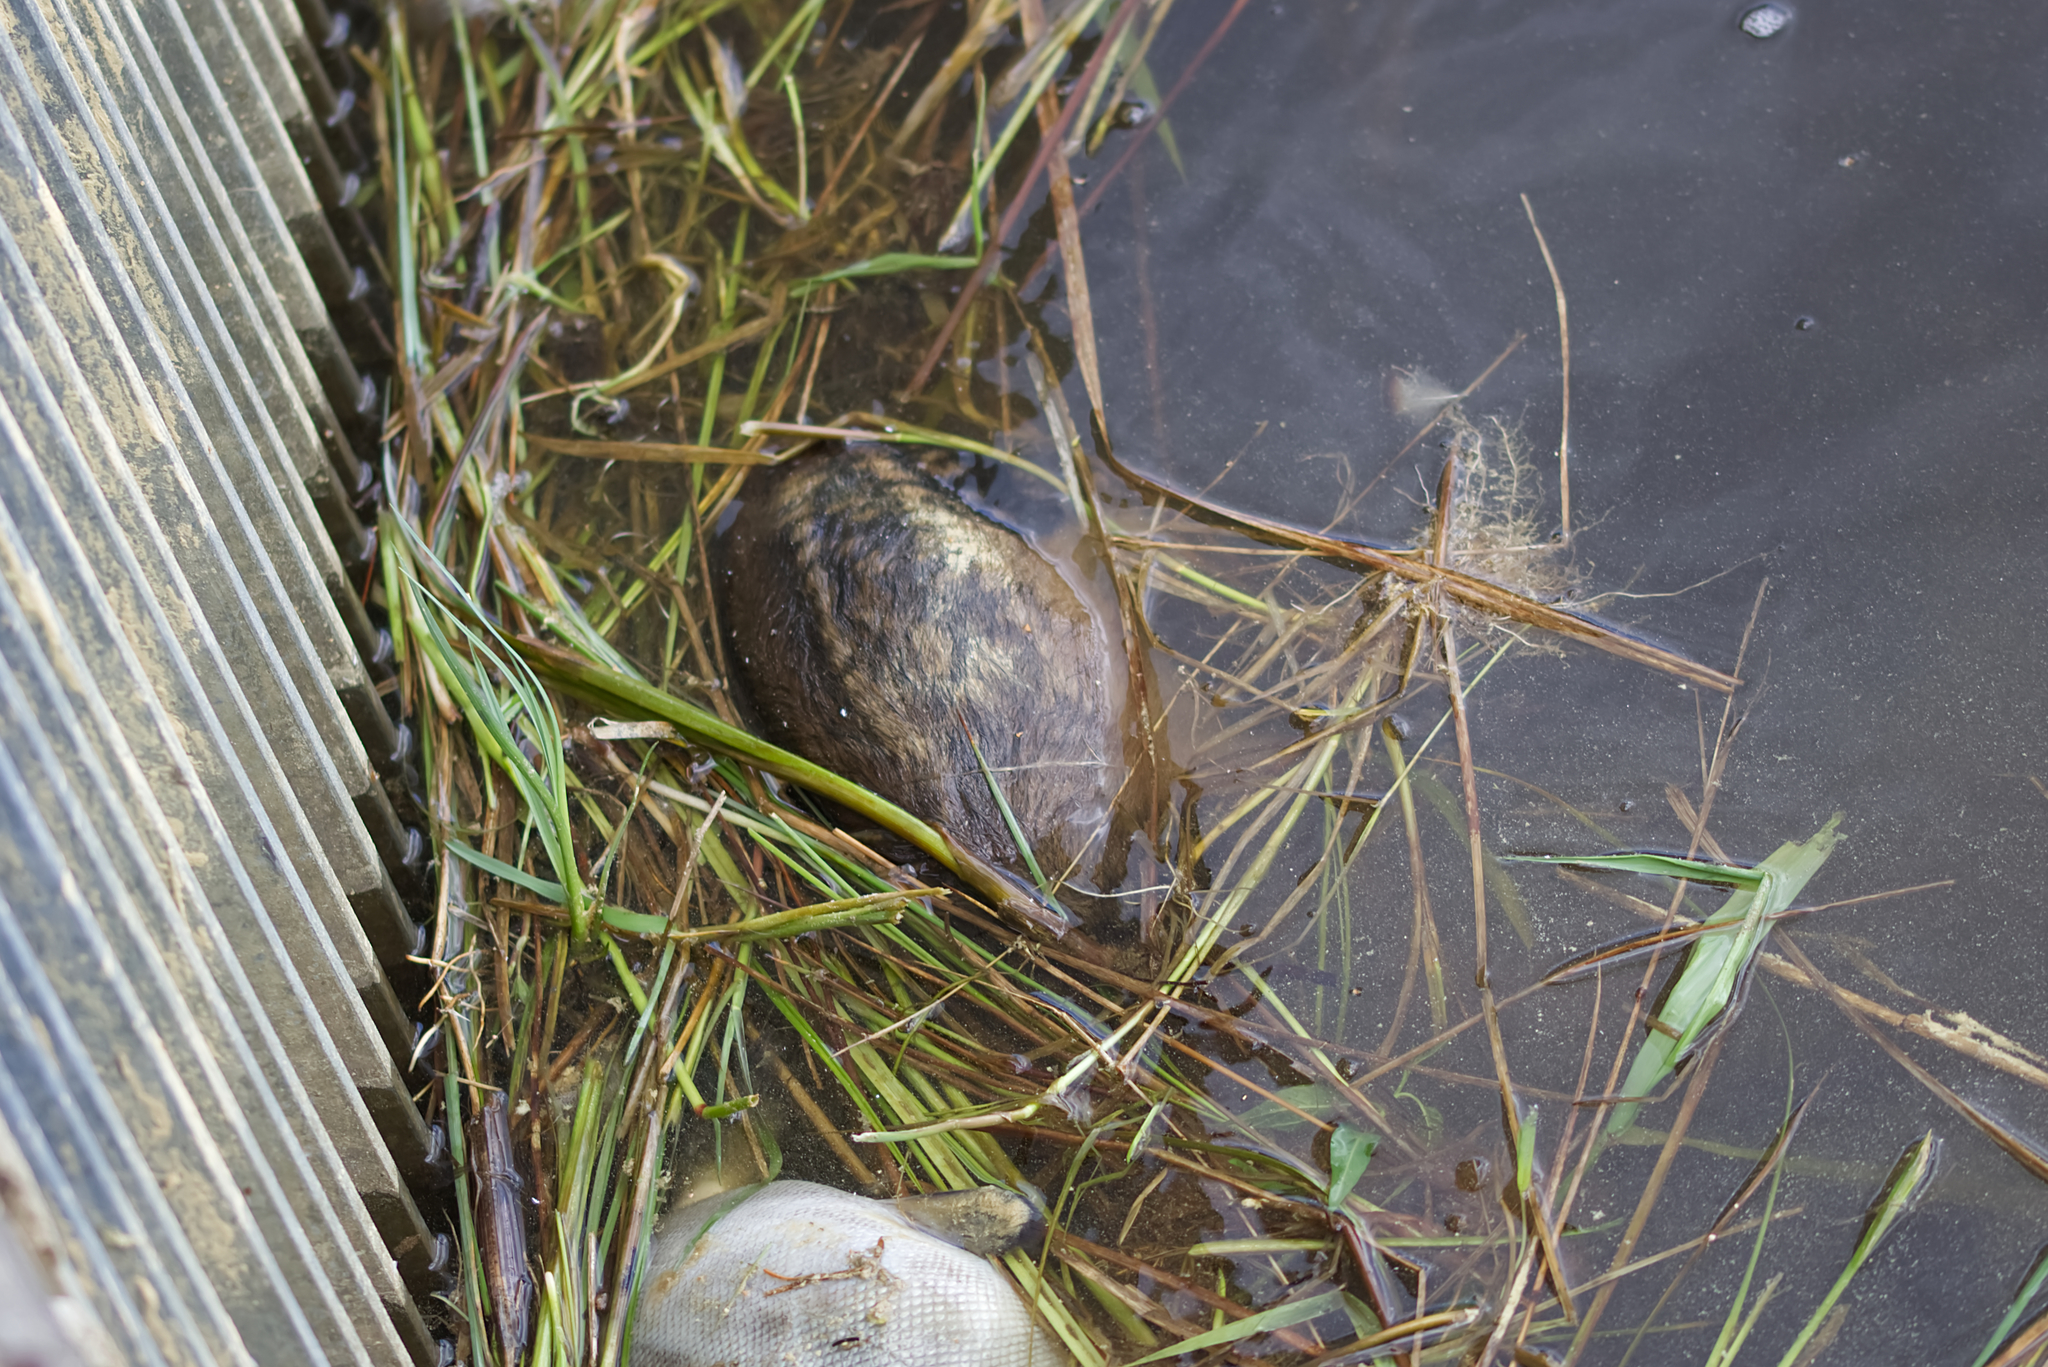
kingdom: Animalia
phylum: Chordata
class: Mammalia
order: Artiodactyla
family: Cervidae
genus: Capreolus
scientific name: Capreolus capreolus
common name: Western roe deer
